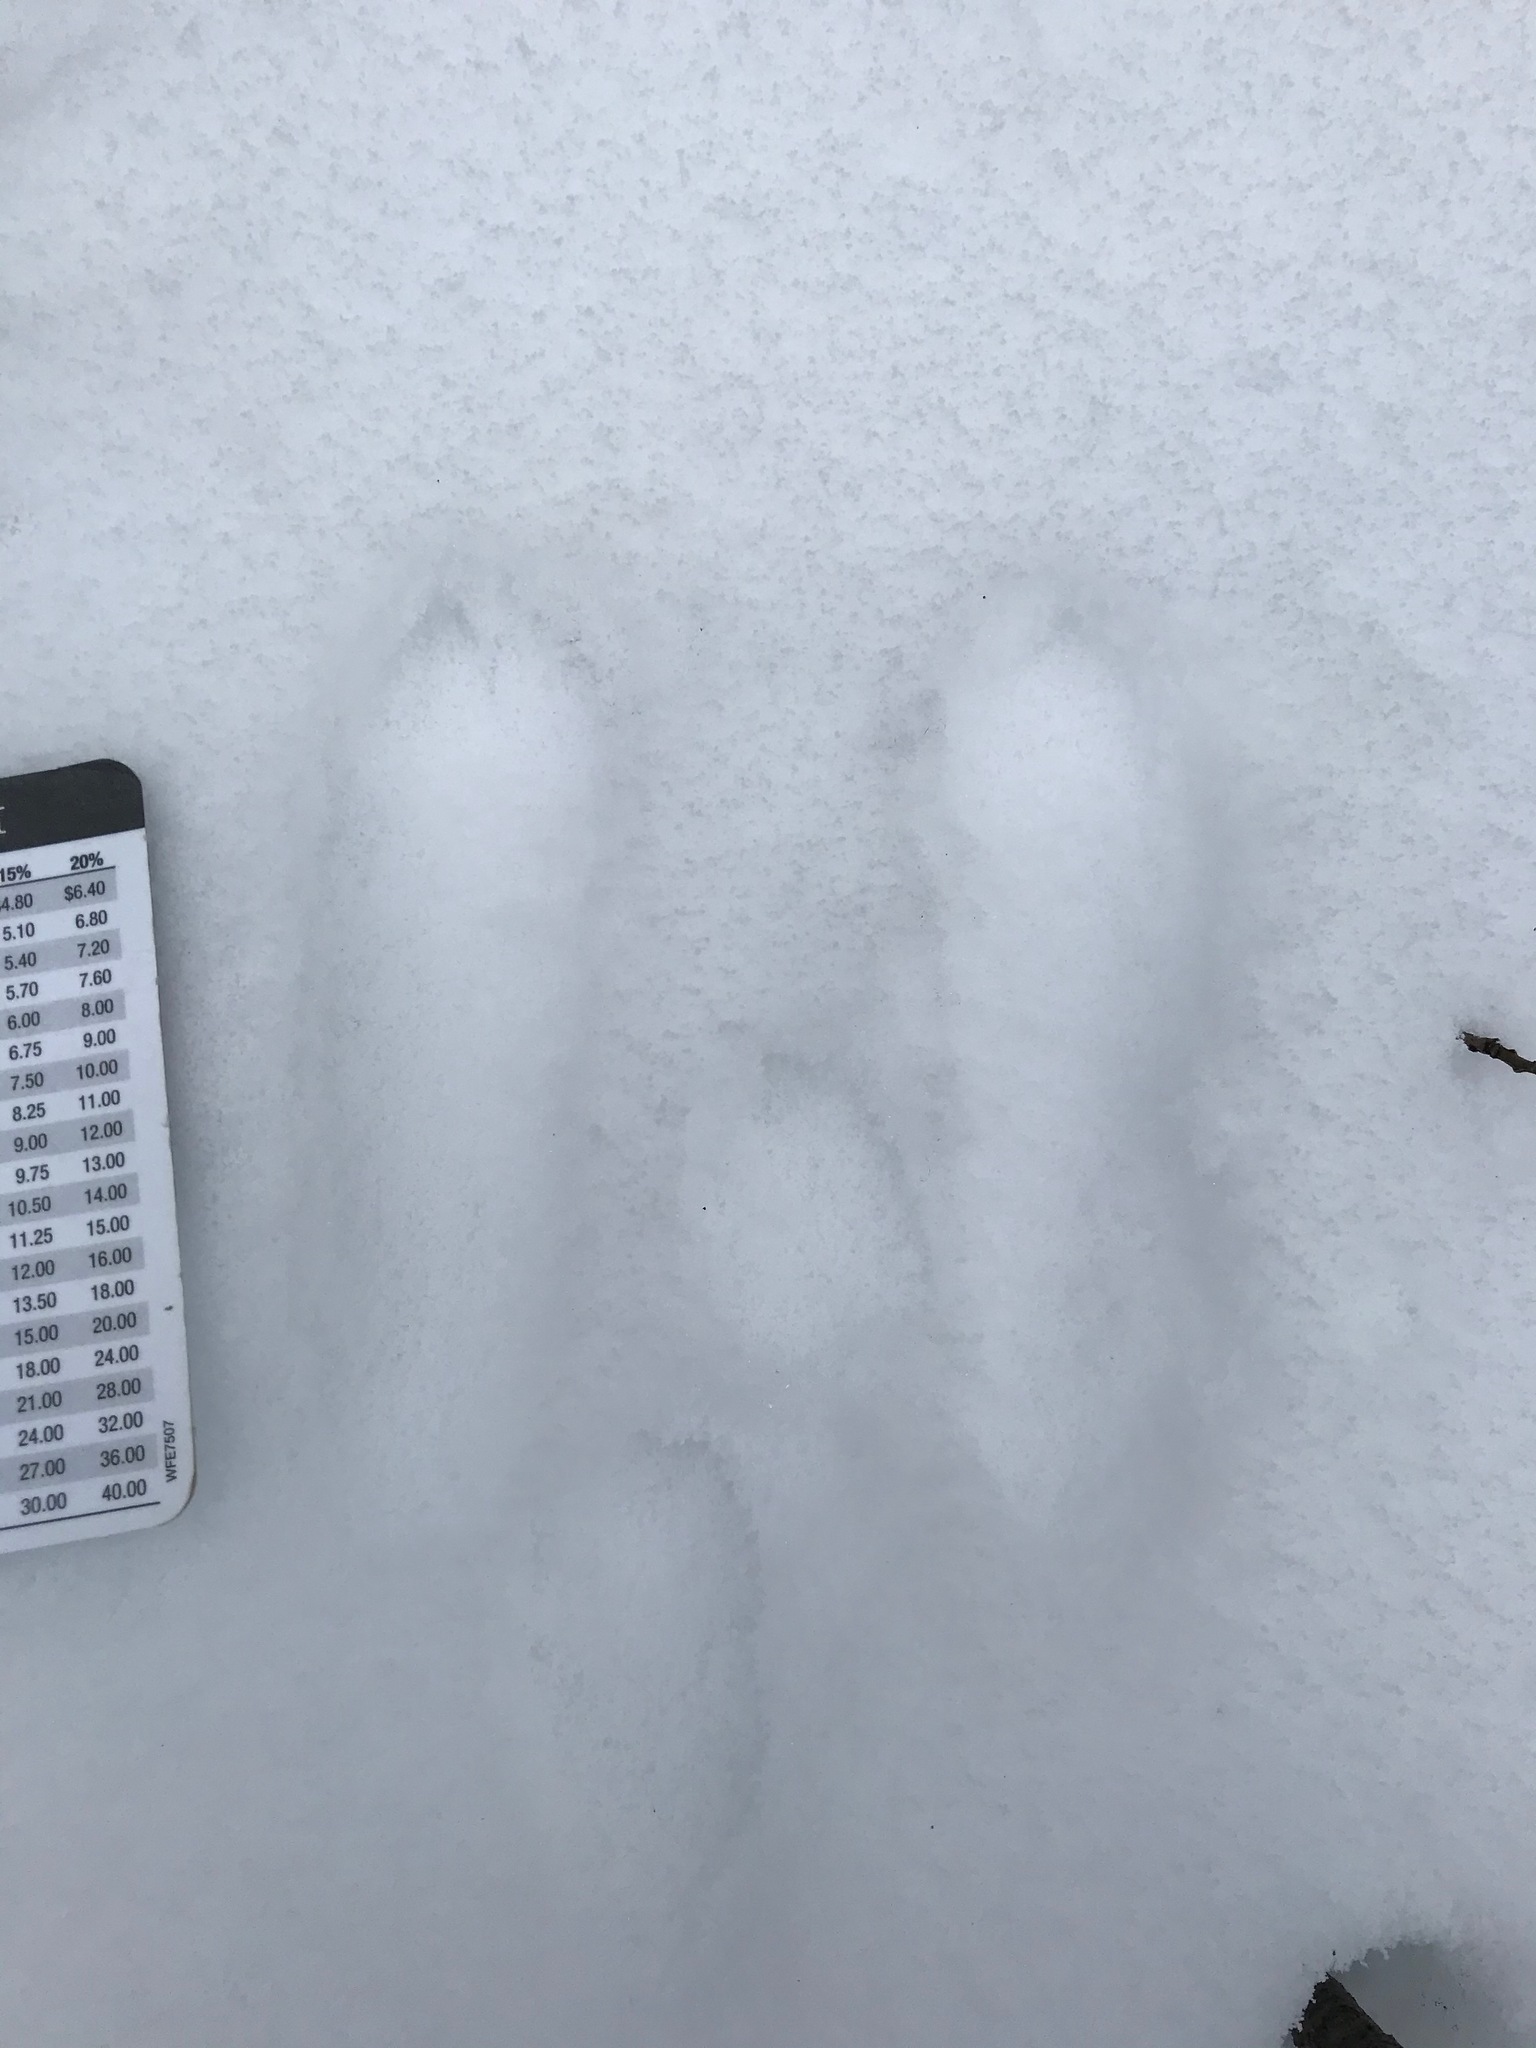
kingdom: Animalia
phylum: Chordata
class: Mammalia
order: Lagomorpha
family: Leporidae
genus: Sylvilagus
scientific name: Sylvilagus floridanus
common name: Eastern cottontail
